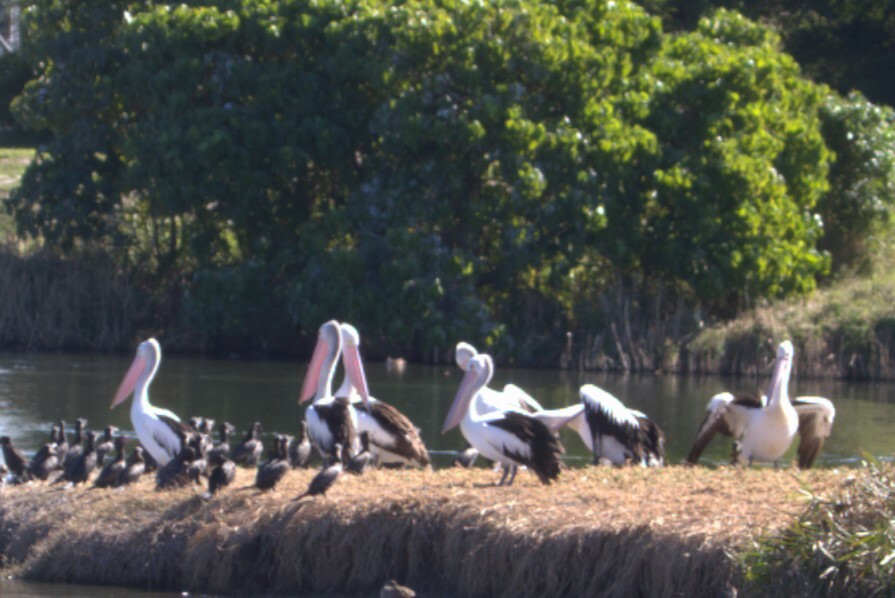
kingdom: Animalia
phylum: Chordata
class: Aves
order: Pelecaniformes
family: Pelecanidae
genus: Pelecanus
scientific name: Pelecanus conspicillatus
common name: Australian pelican
